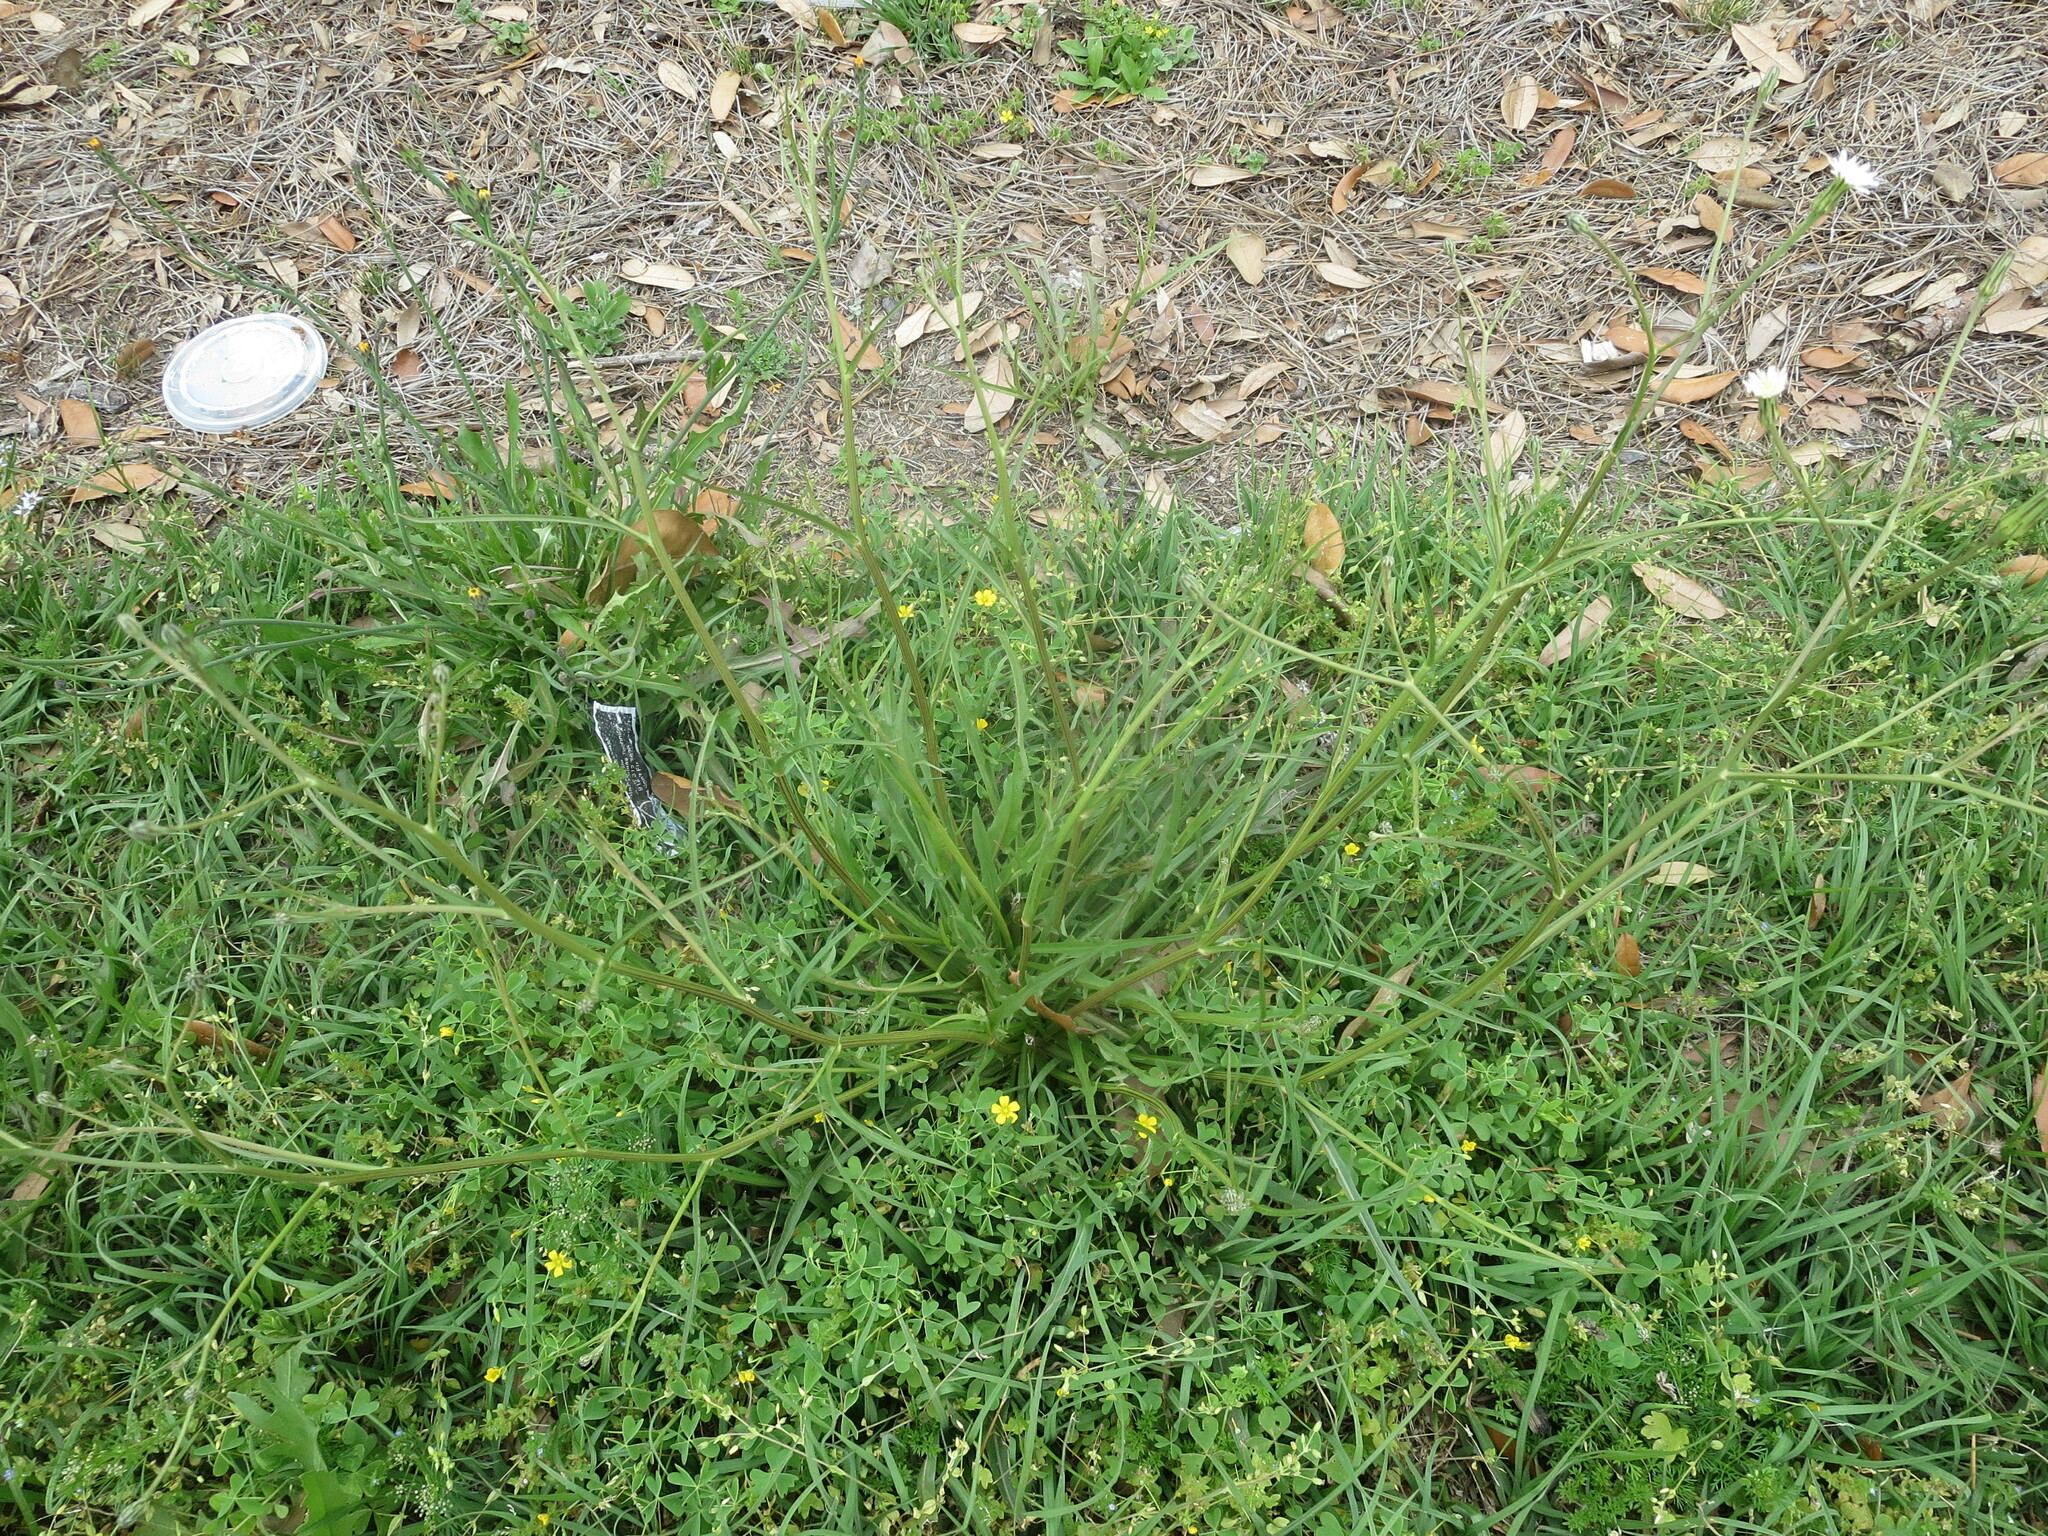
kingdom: Plantae
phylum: Tracheophyta
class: Magnoliopsida
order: Asterales
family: Asteraceae
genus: Hypochaeris
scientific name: Hypochaeris albiflora
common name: White flatweed
